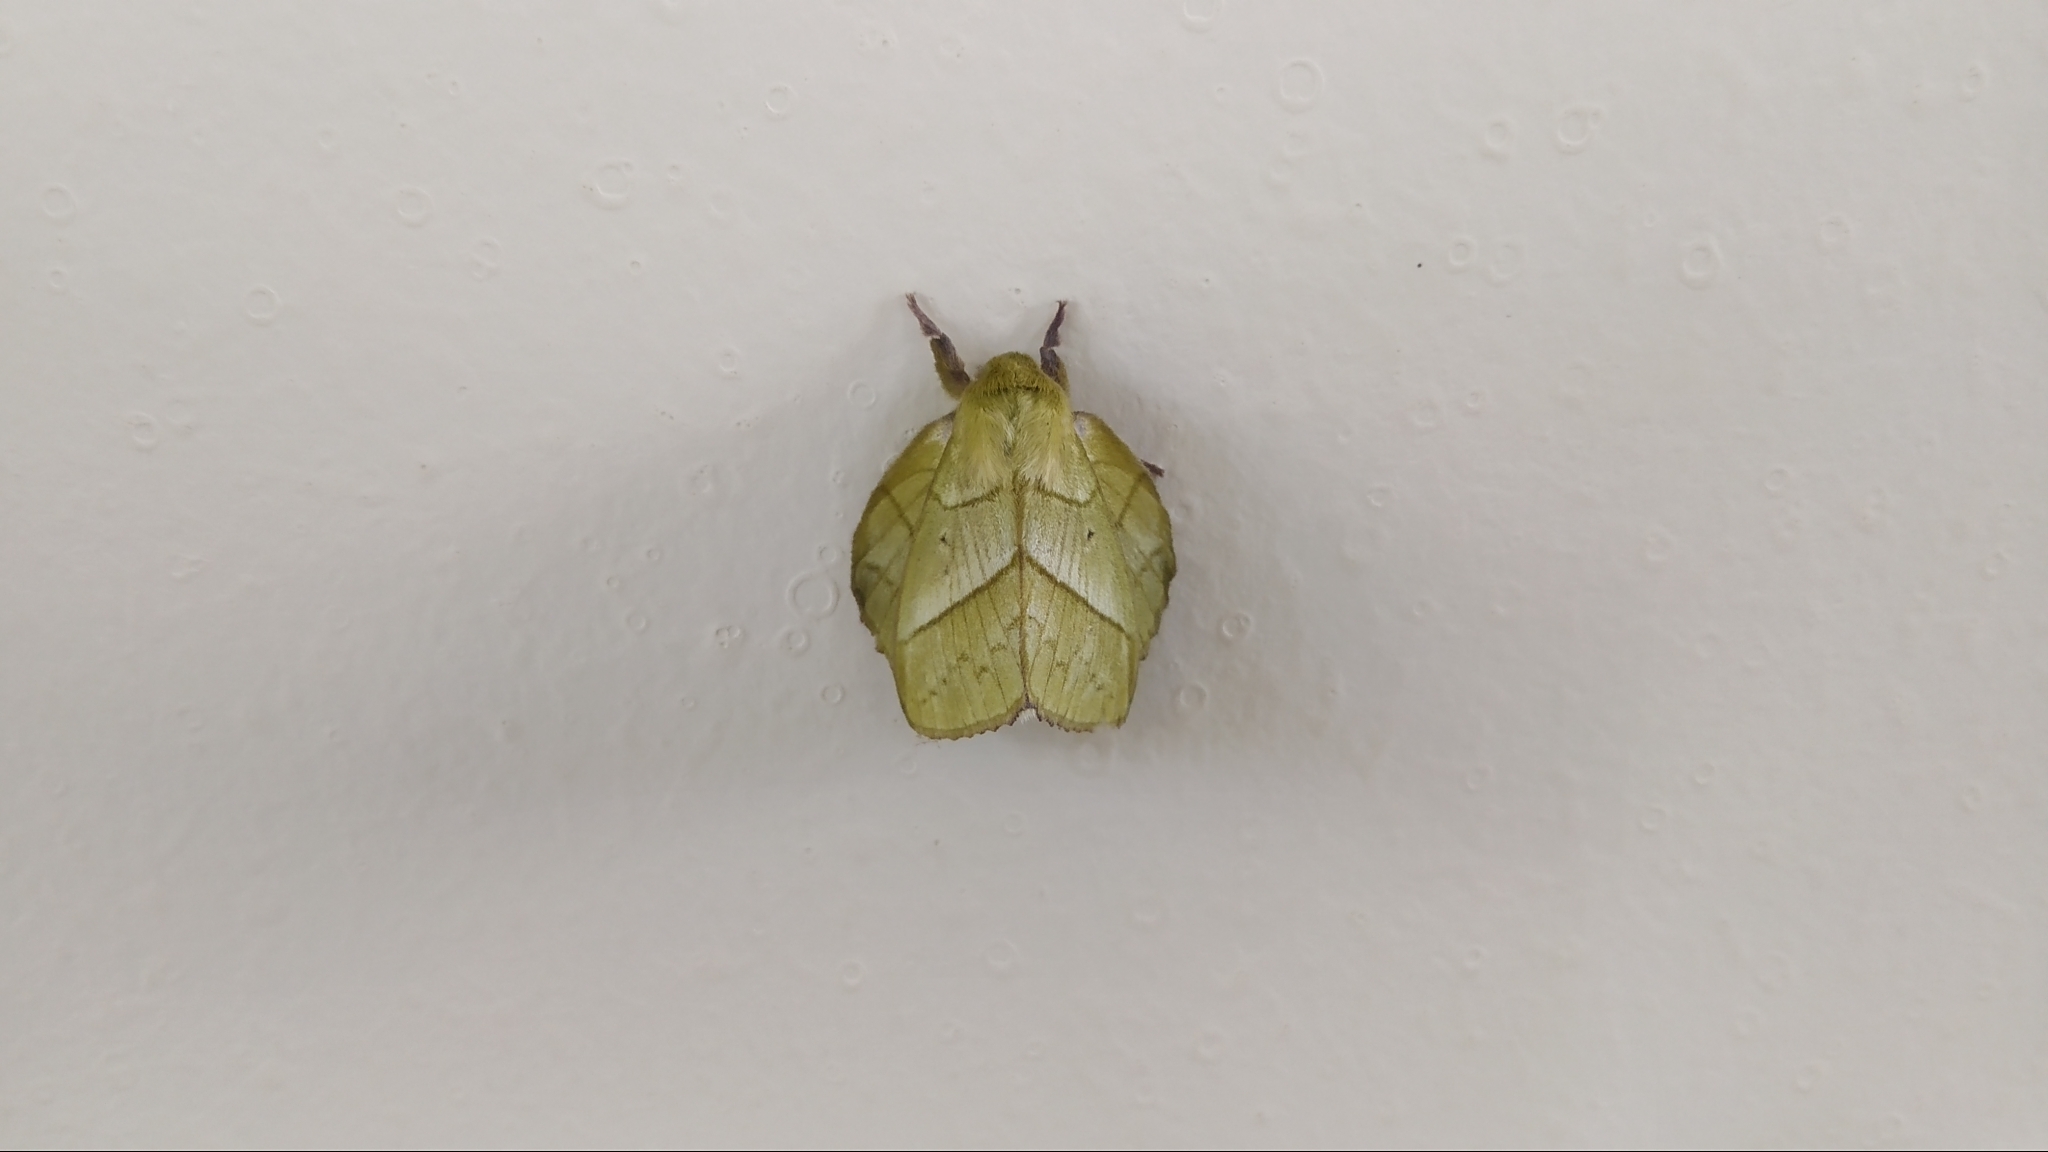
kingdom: Animalia
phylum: Arthropoda
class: Insecta
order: Lepidoptera
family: Lasiocampidae
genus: Trabala
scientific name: Trabala vishnou
